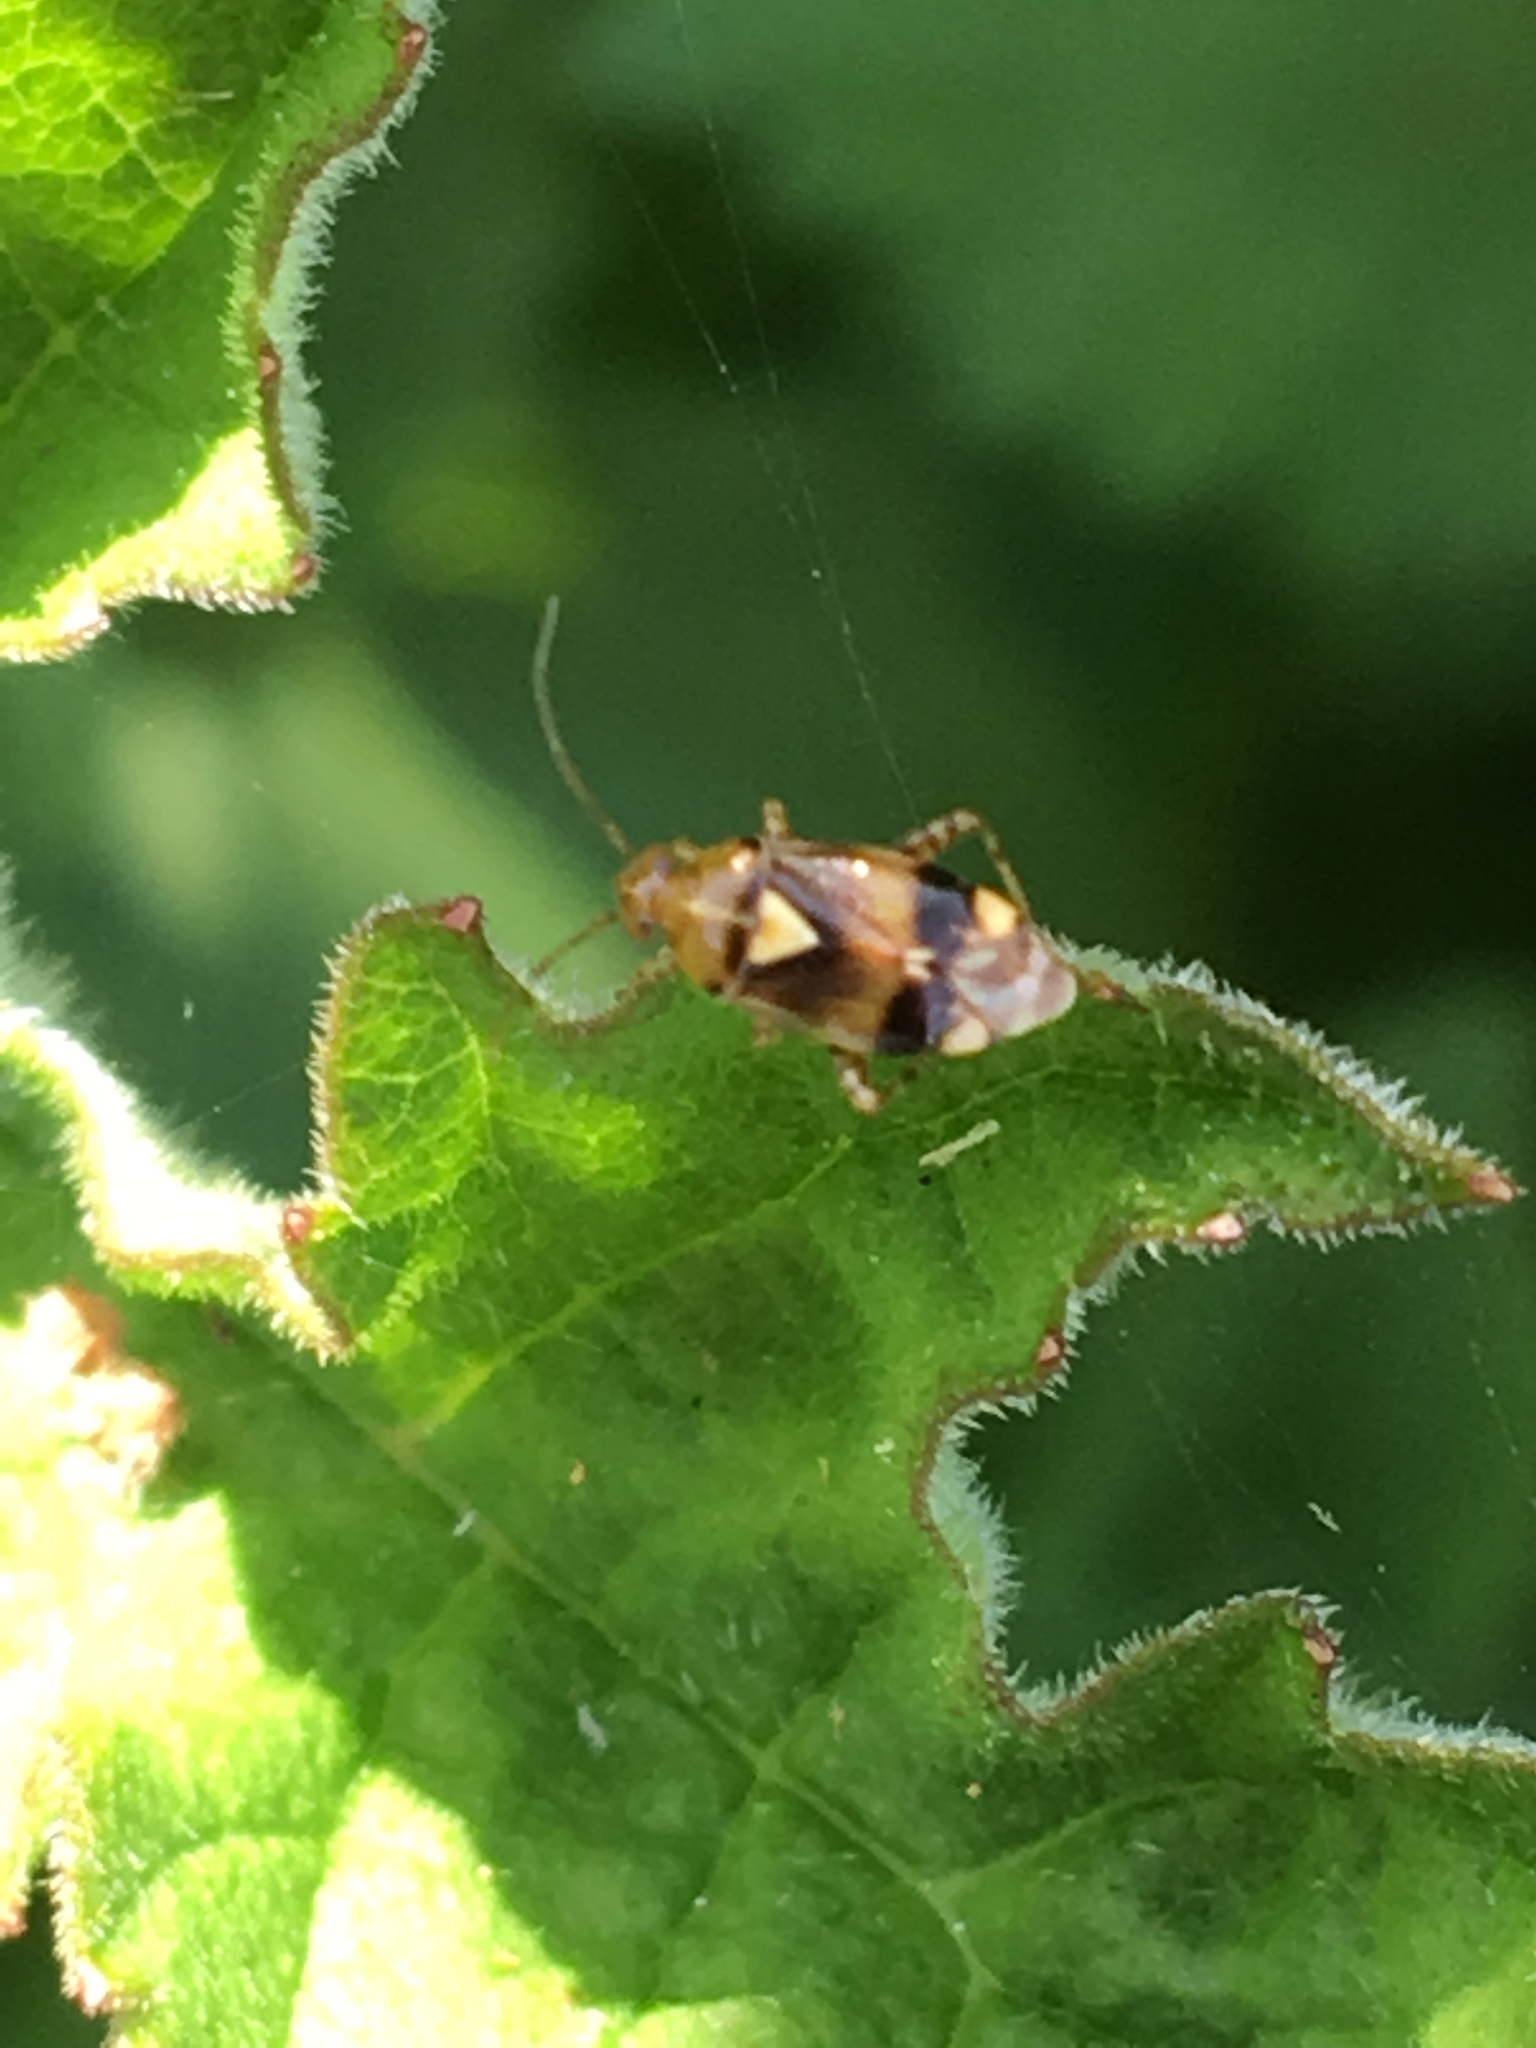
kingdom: Animalia
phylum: Arthropoda
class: Insecta
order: Hemiptera
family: Miridae
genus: Liocoris
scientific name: Liocoris tripustulatus
